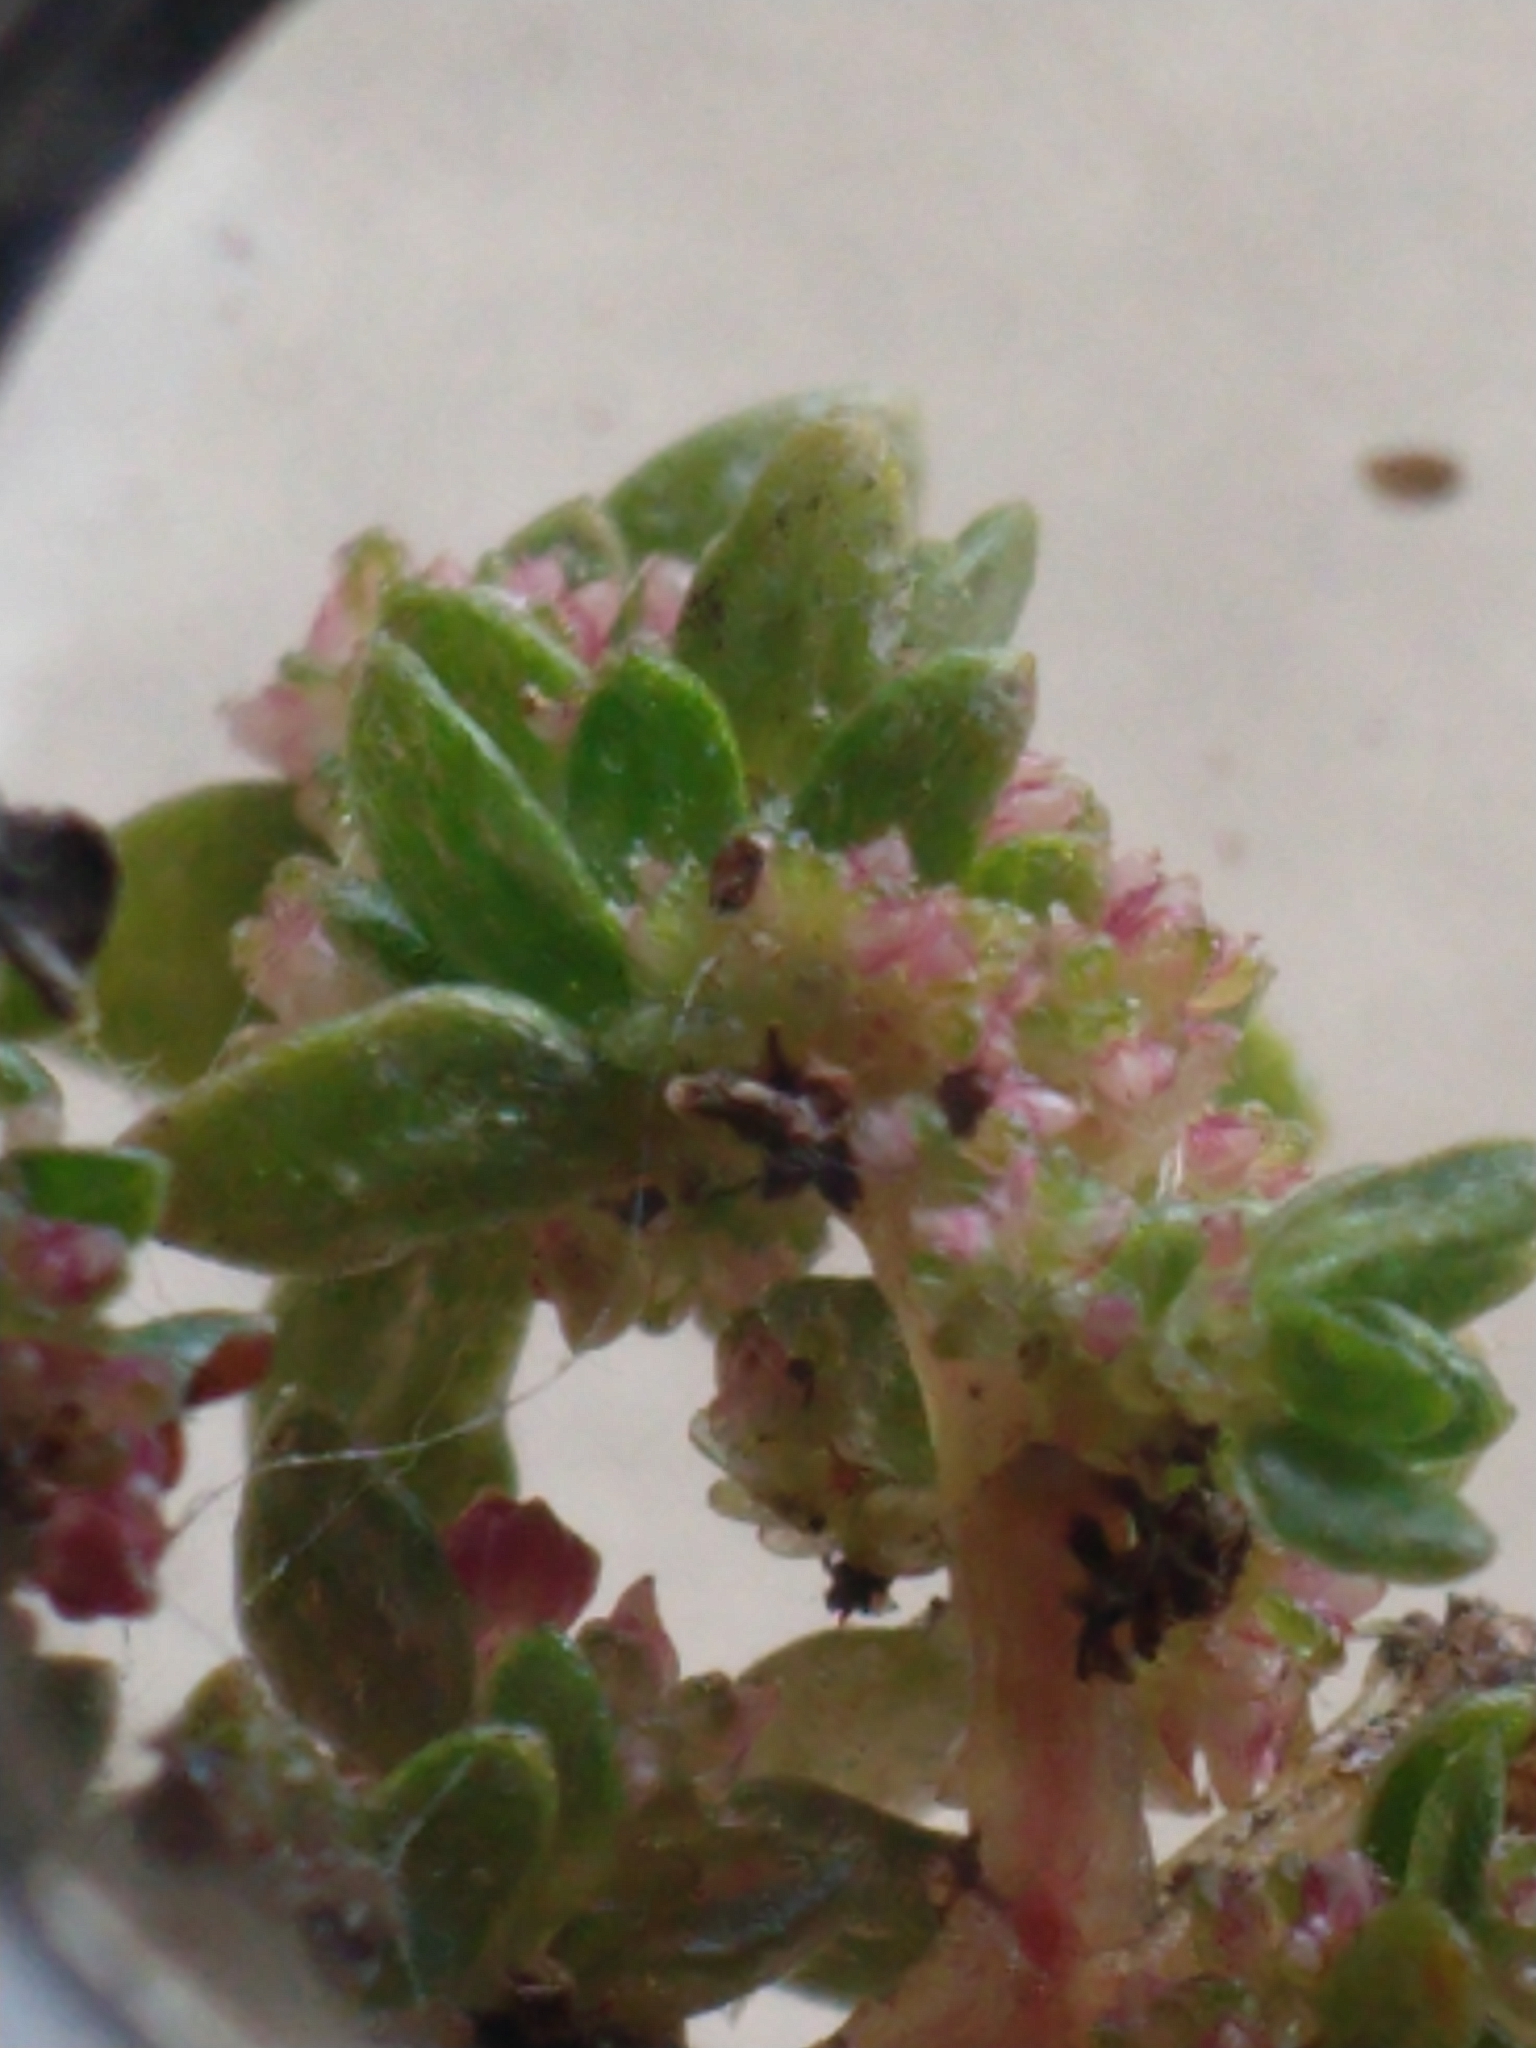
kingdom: Plantae
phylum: Tracheophyta
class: Magnoliopsida
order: Rosales
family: Urticaceae
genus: Pilea
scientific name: Pilea microphylla
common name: Artillery-plant
